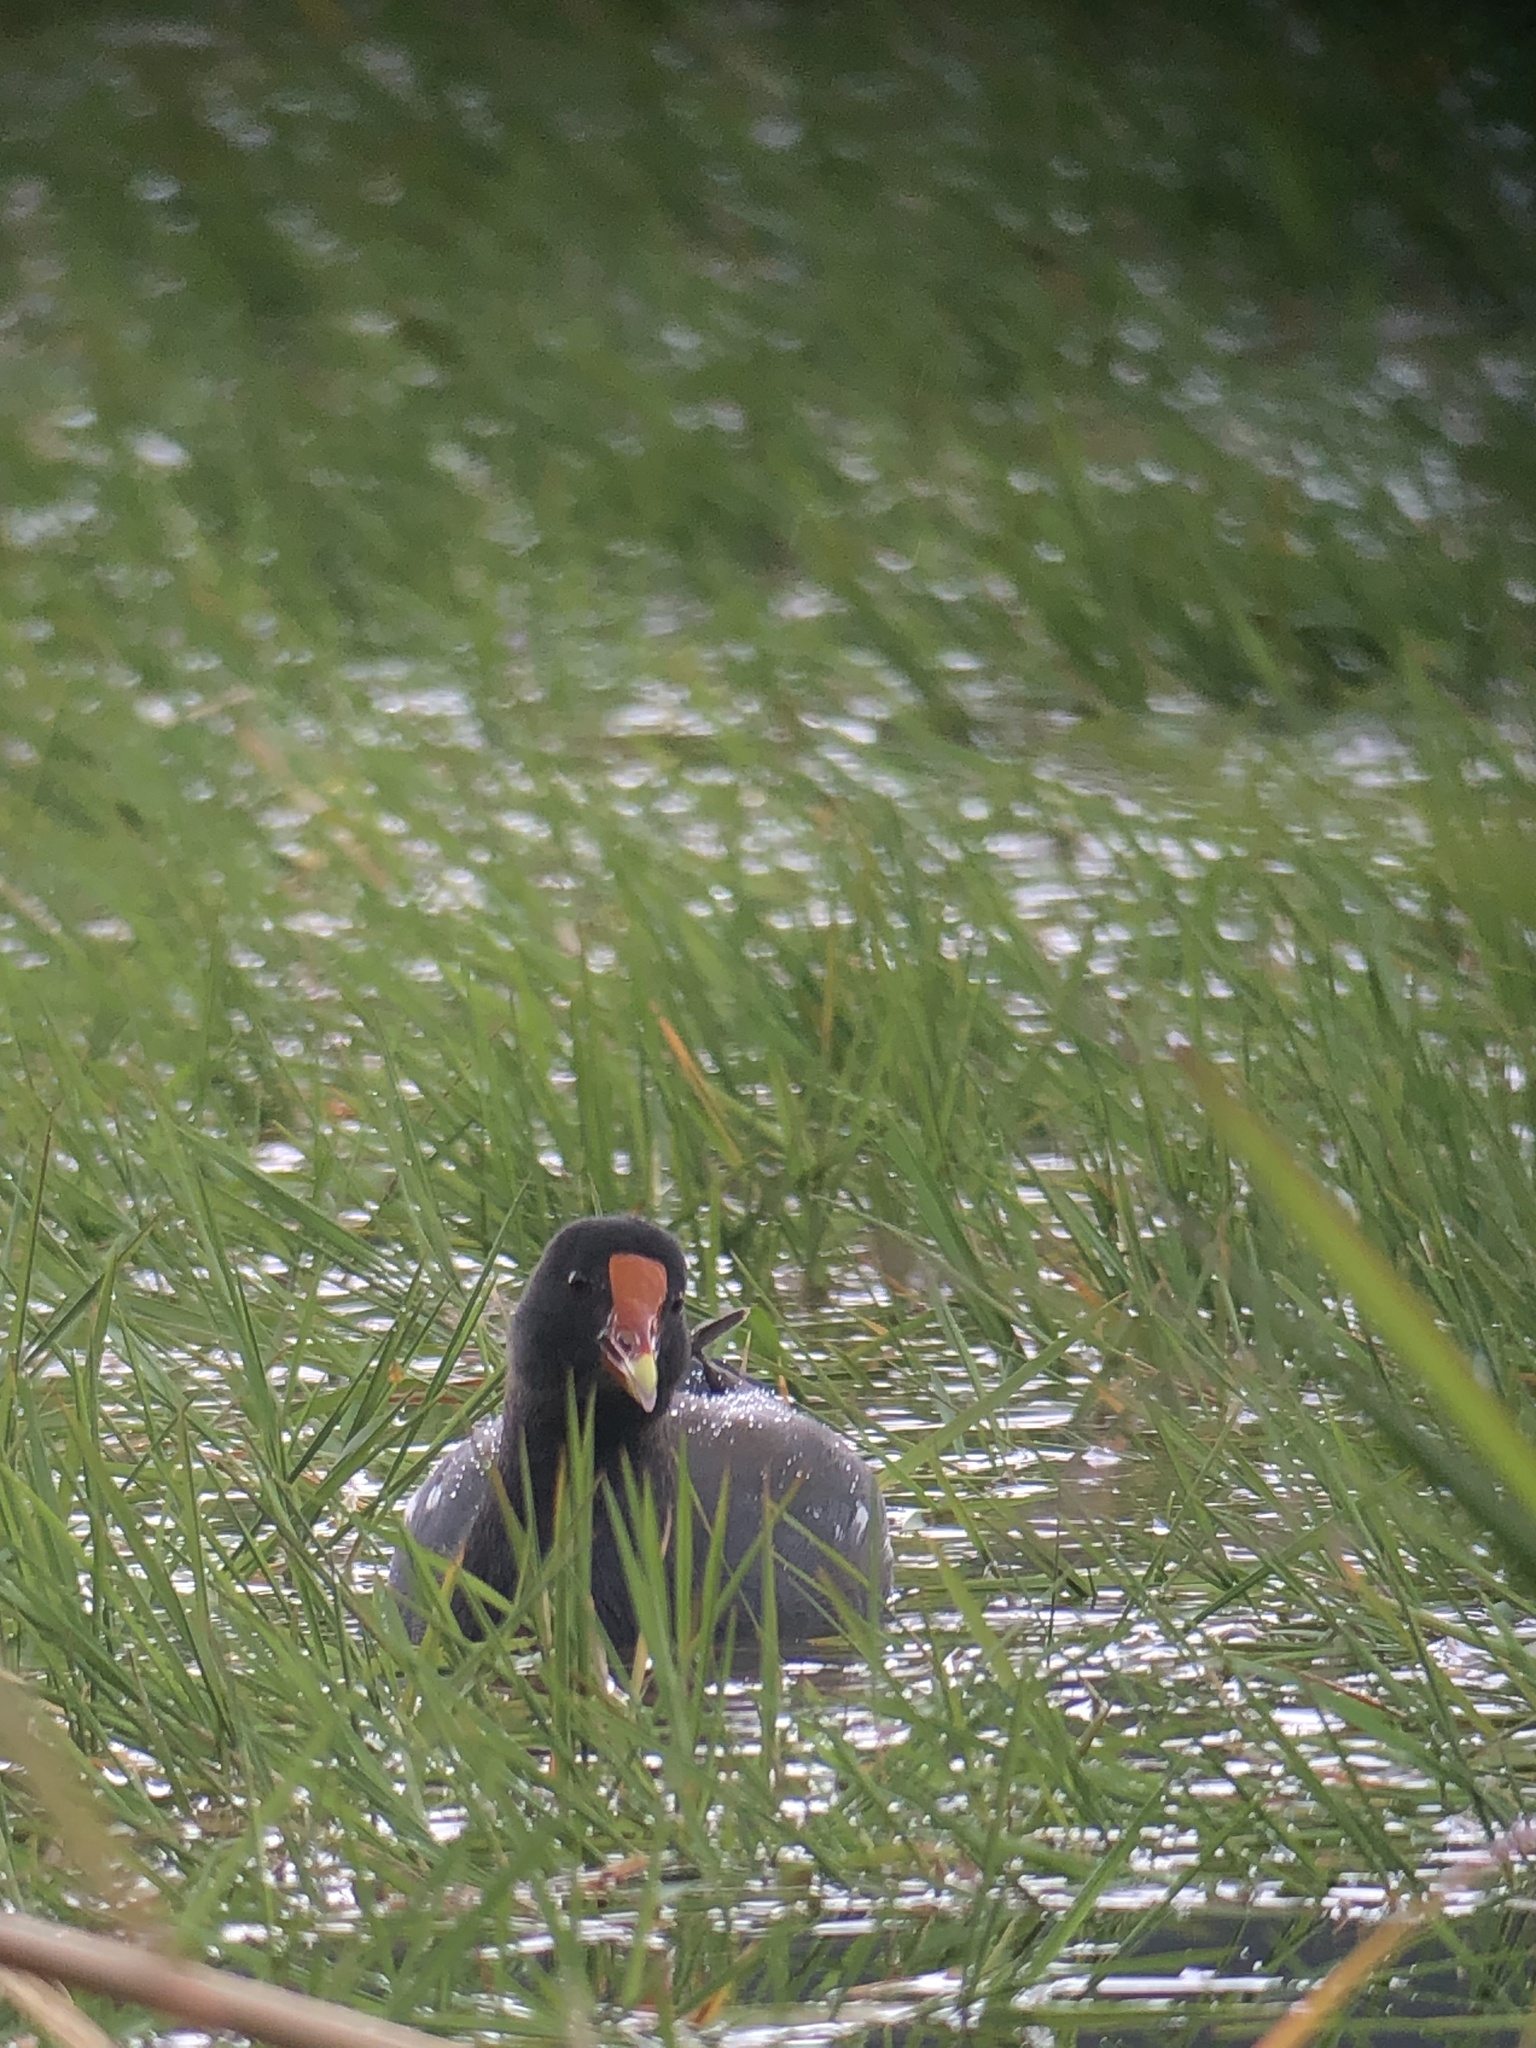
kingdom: Animalia
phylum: Chordata
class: Aves
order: Gruiformes
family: Rallidae
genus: Gallinula
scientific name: Gallinula chloropus
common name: Common moorhen
